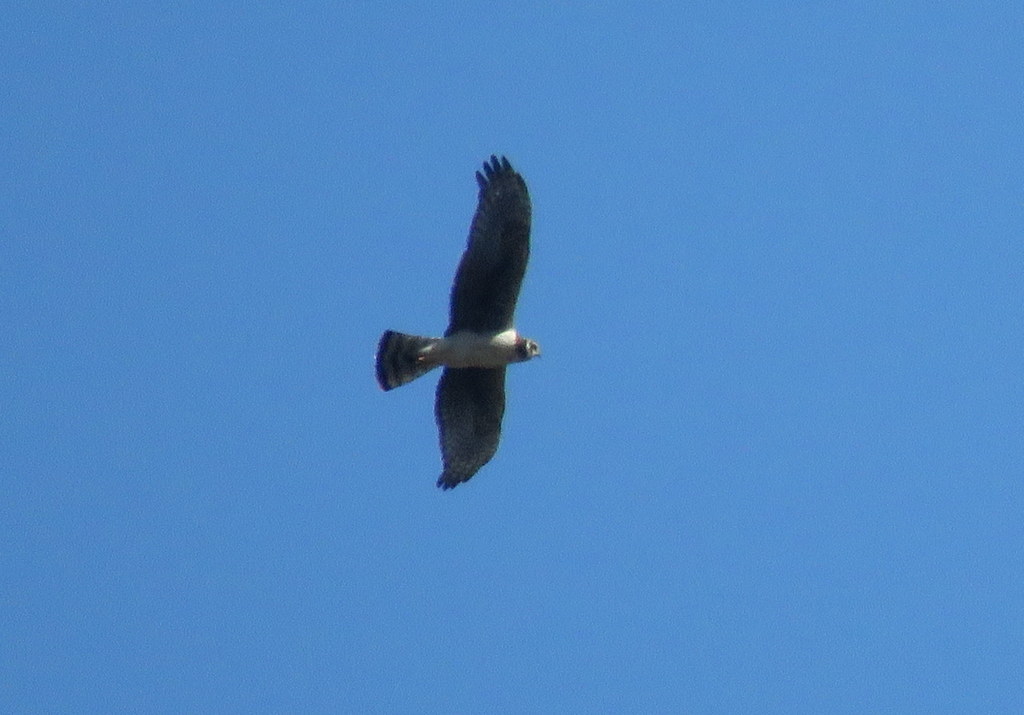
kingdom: Animalia
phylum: Chordata
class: Aves
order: Accipitriformes
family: Accipitridae
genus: Circus
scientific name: Circus buffoni
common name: Long-winged harrier
